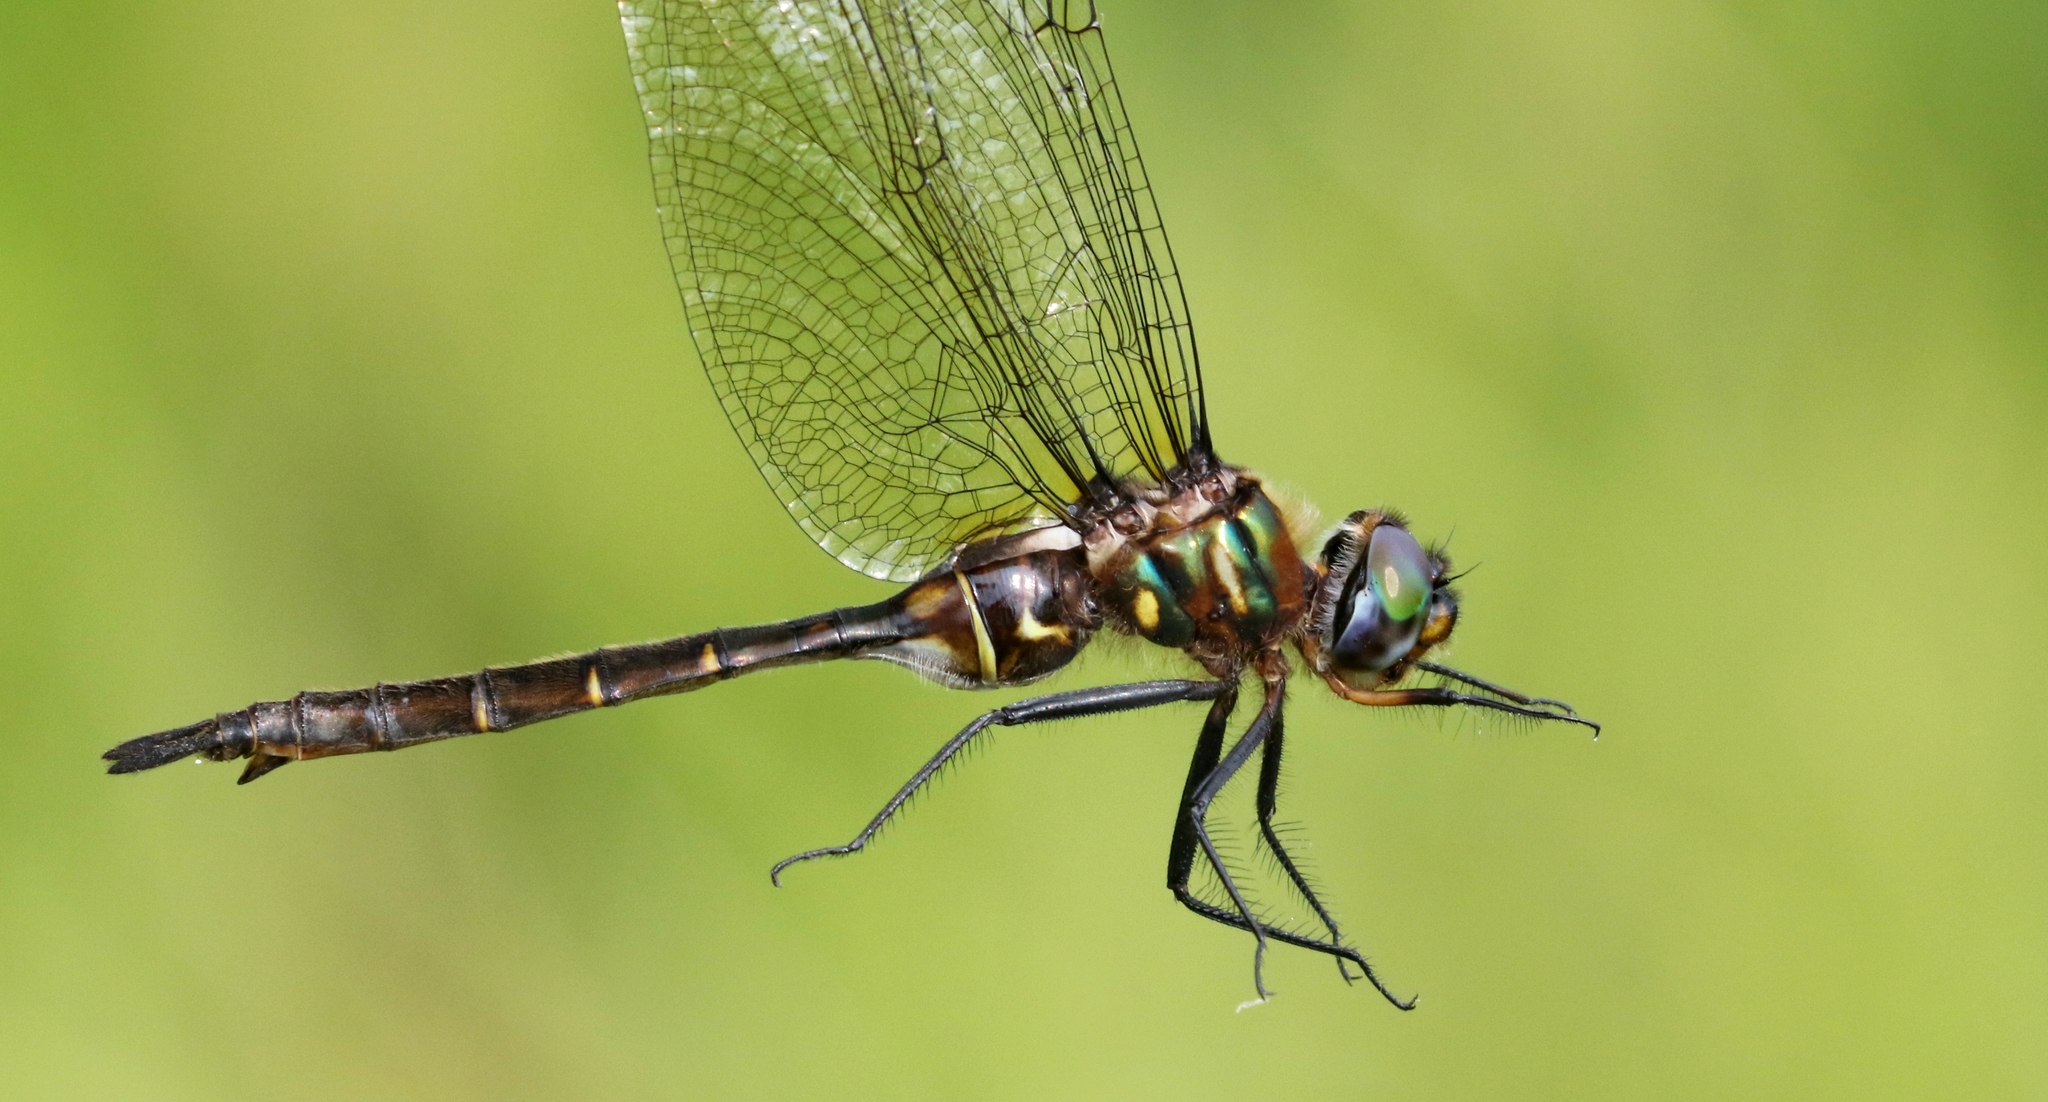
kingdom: Animalia
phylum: Arthropoda
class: Insecta
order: Odonata
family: Corduliidae
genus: Somatochlora
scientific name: Somatochlora walshii
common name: Brush-tipped emerald
